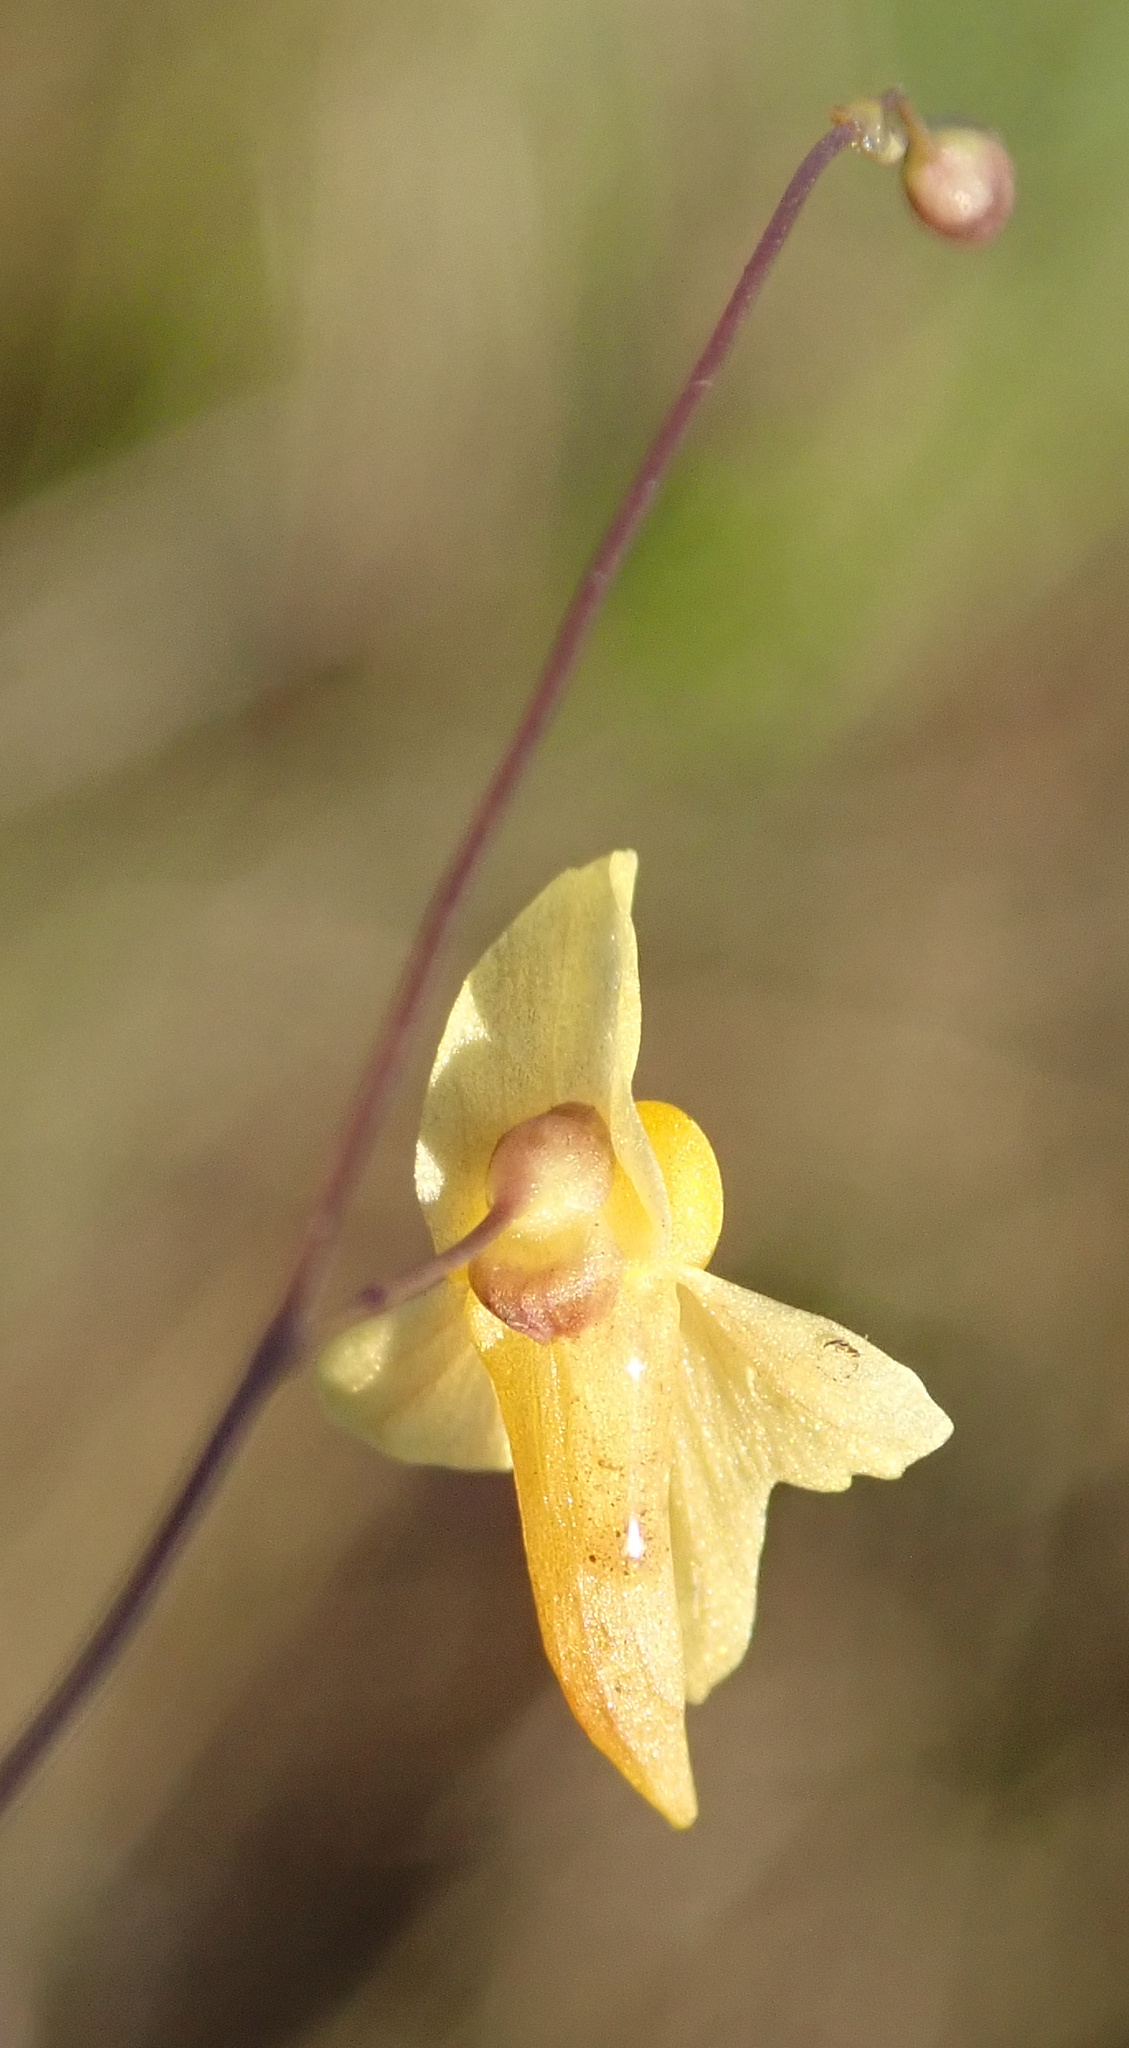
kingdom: Plantae
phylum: Tracheophyta
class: Magnoliopsida
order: Lamiales
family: Lentibulariaceae
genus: Utricularia
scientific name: Utricularia subulata
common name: Tiny bladderwort
